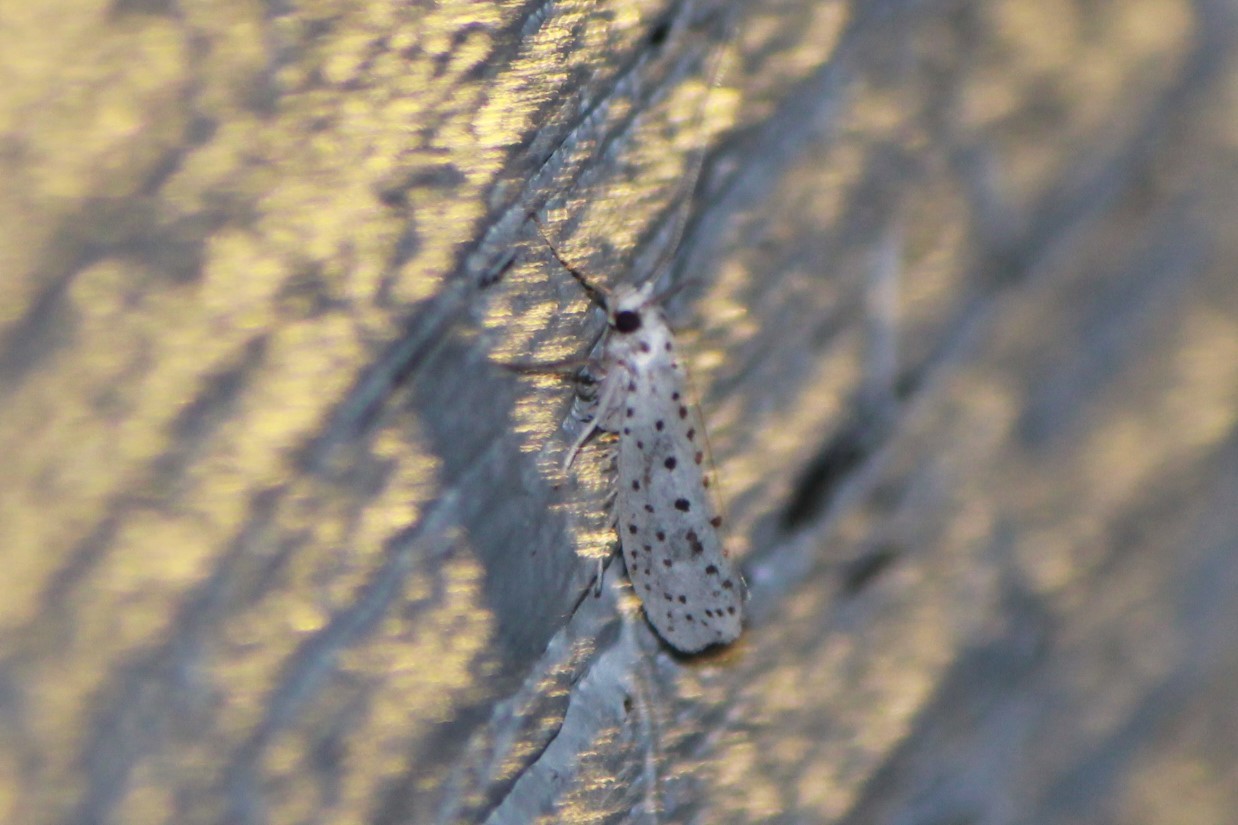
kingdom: Animalia
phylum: Arthropoda
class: Insecta
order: Lepidoptera
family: Yponomeutidae
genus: Yponomeuta
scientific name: Yponomeuta multipunctella
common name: American ermine moth
